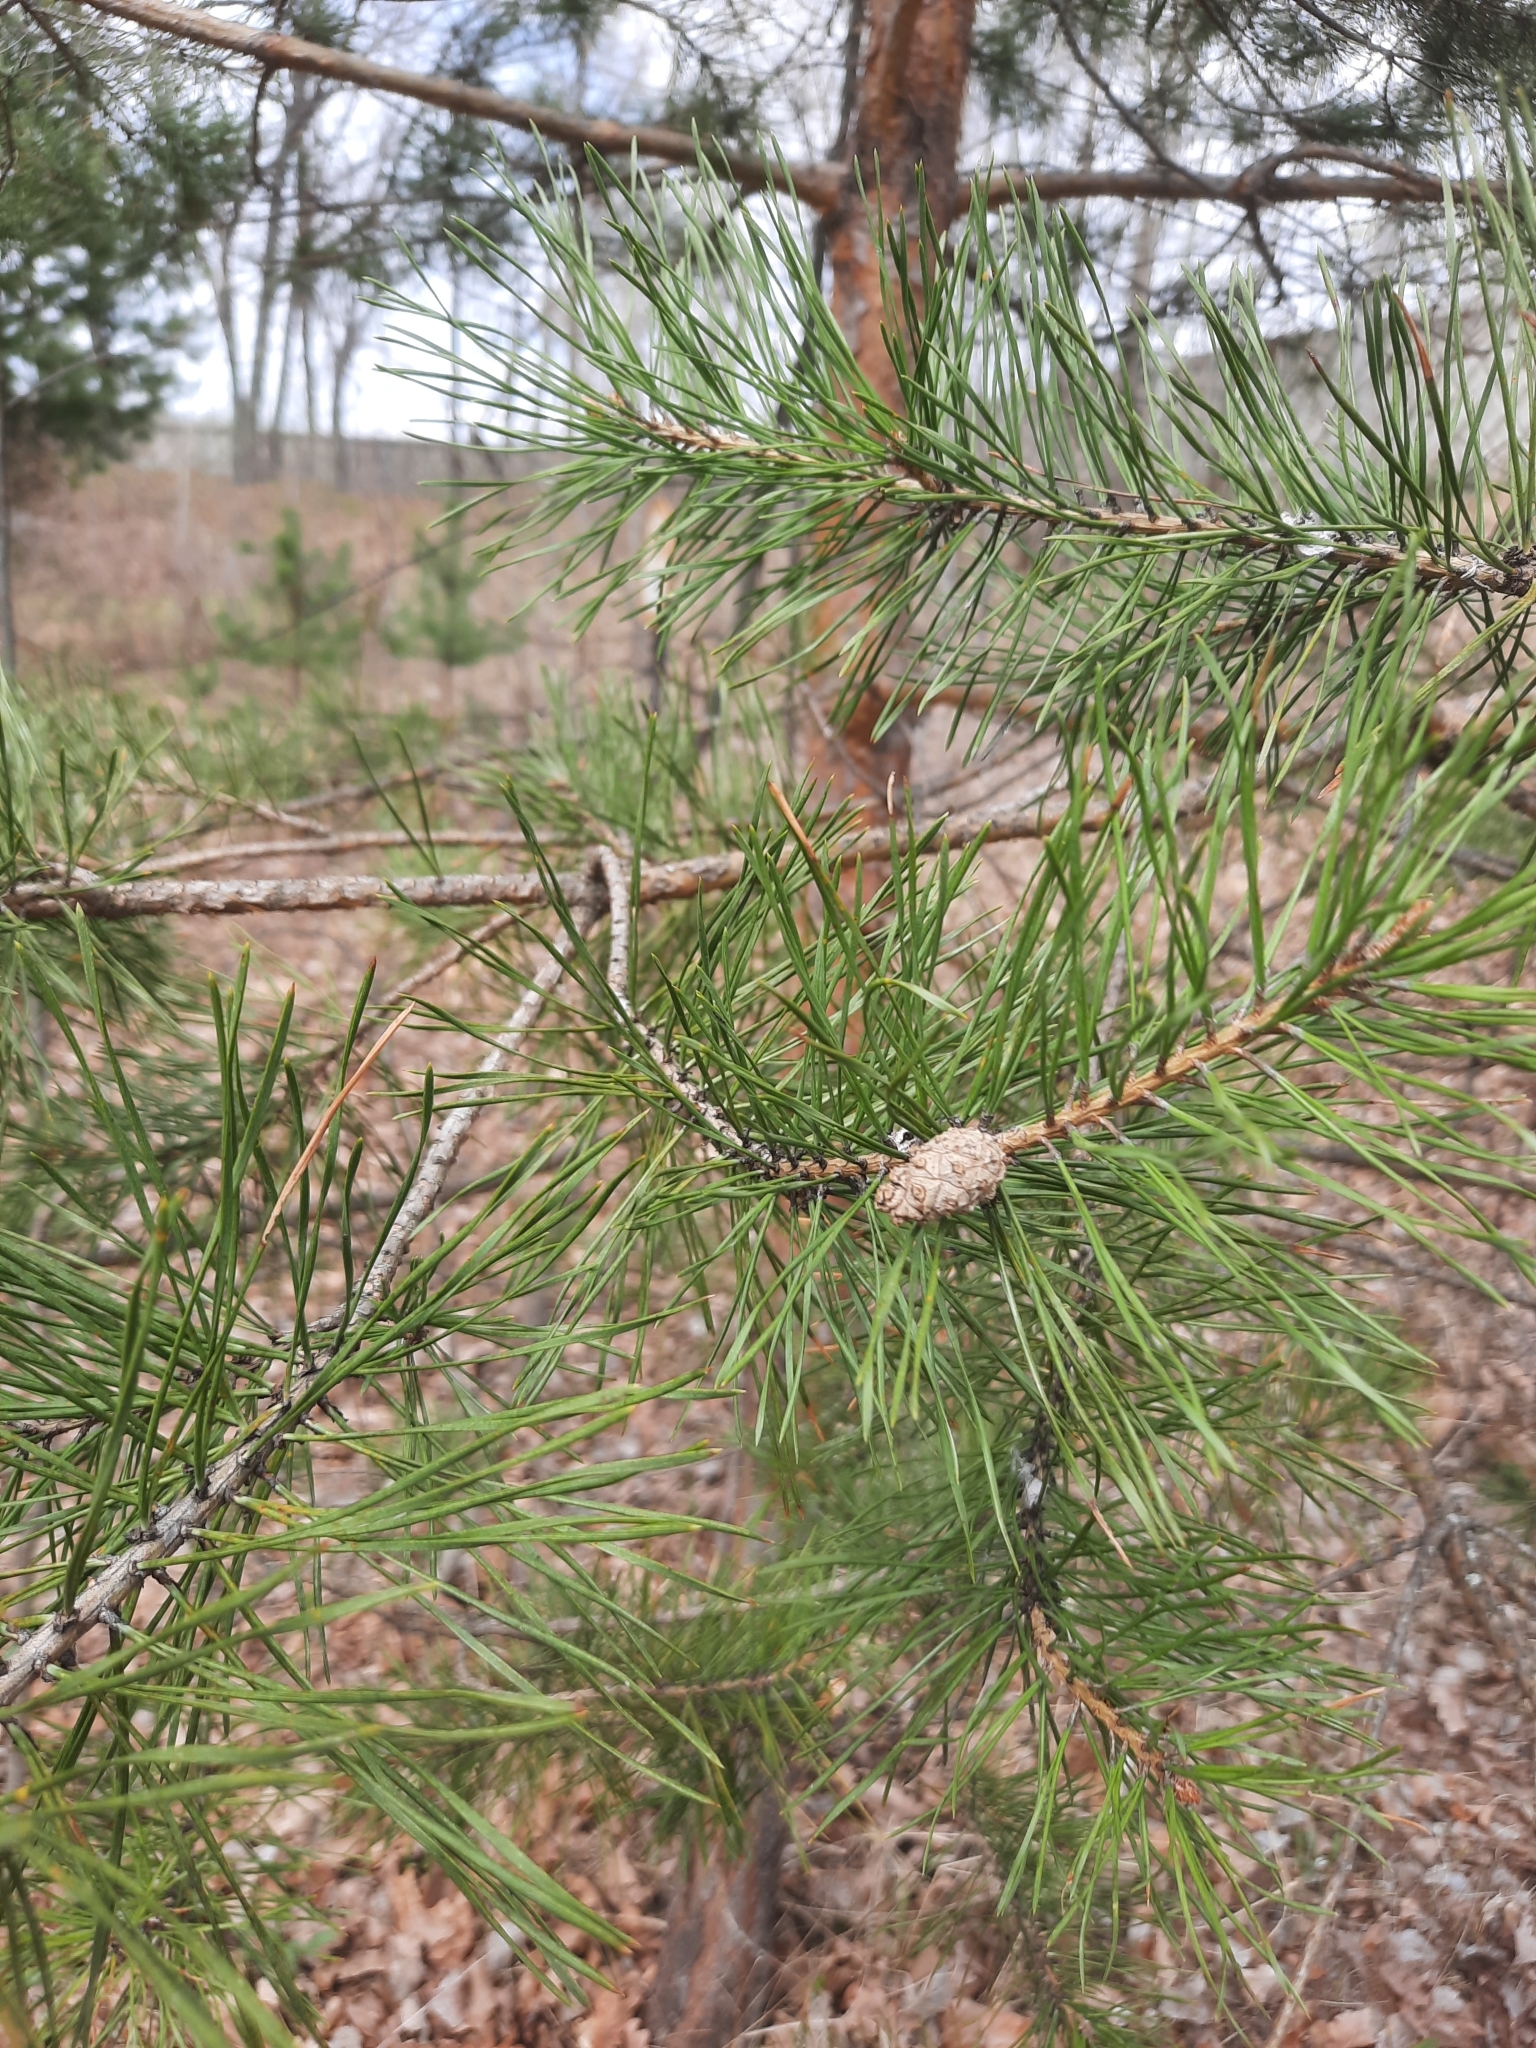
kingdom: Plantae
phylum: Tracheophyta
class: Pinopsida
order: Pinales
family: Pinaceae
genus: Pinus
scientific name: Pinus sylvestris
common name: Scots pine
